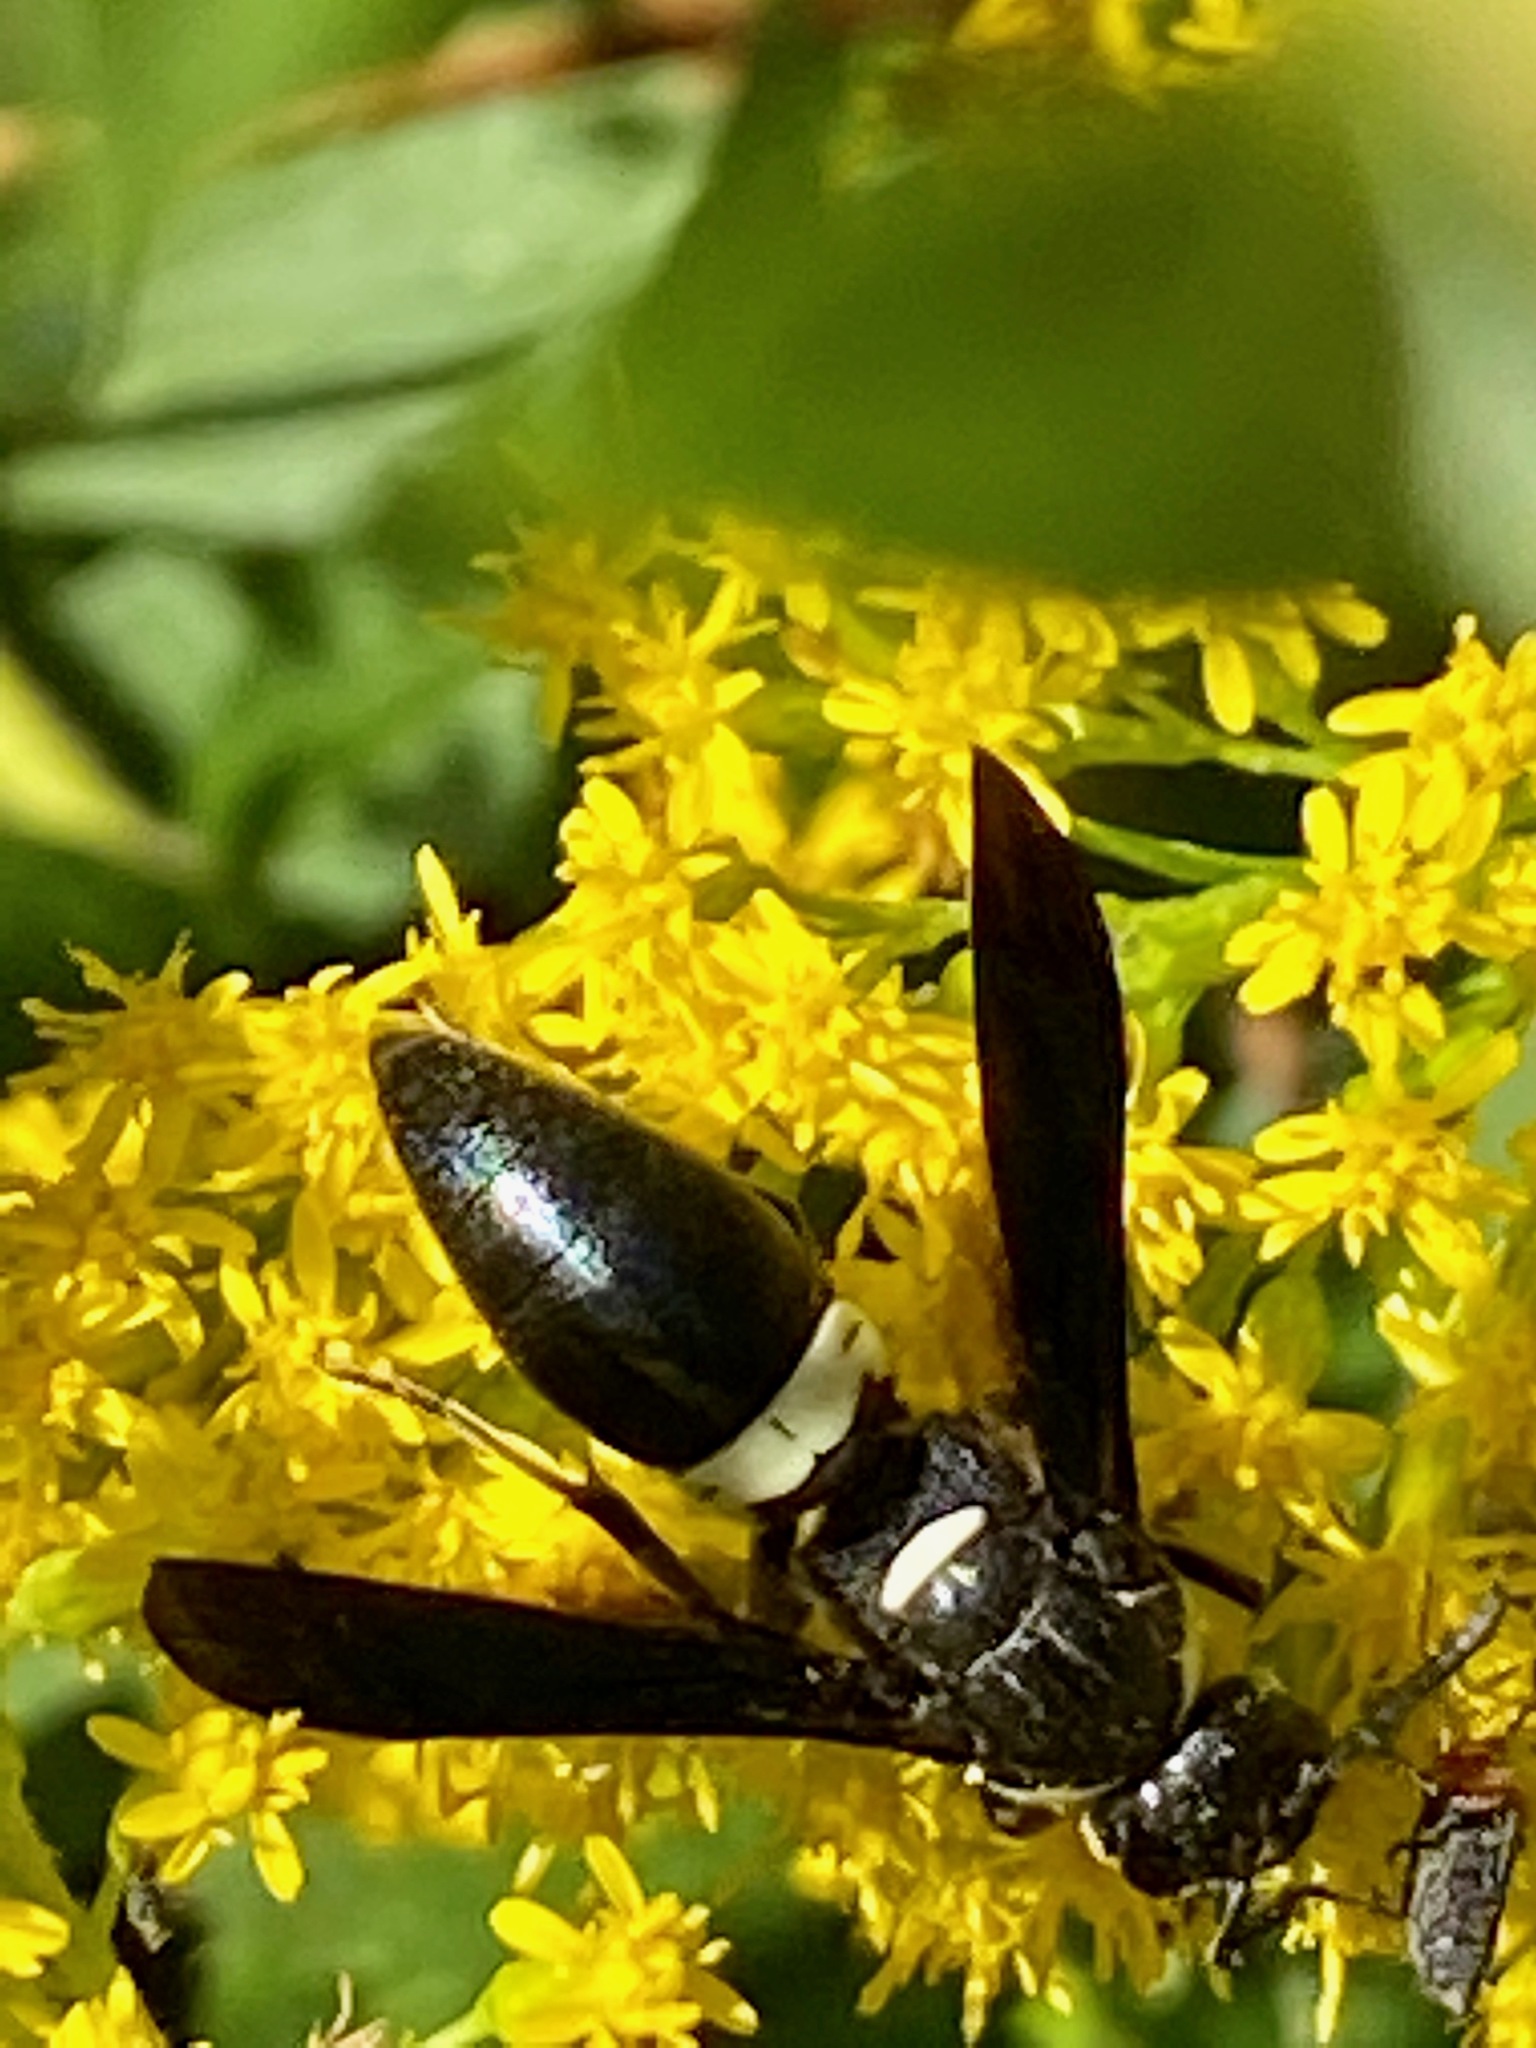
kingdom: Animalia
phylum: Arthropoda
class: Insecta
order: Hymenoptera
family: Eumenidae
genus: Monobia
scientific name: Monobia quadridens
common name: Four-toothed mason wasp
